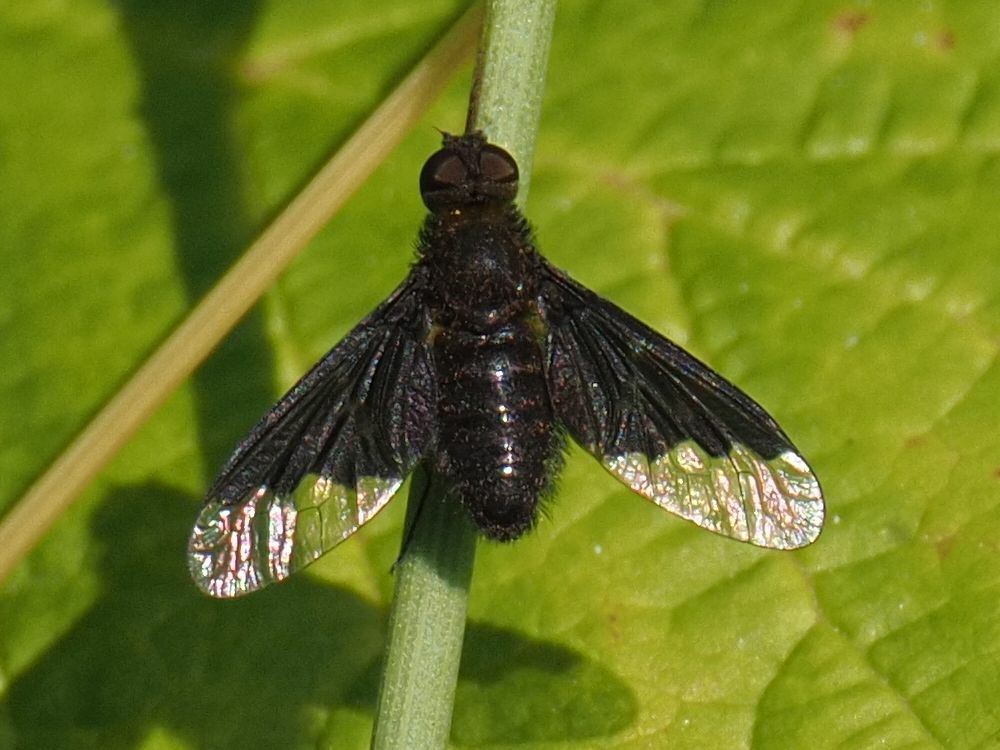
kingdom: Animalia
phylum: Arthropoda
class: Insecta
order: Diptera
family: Bombyliidae
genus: Hemipenthes
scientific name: Hemipenthes morio
